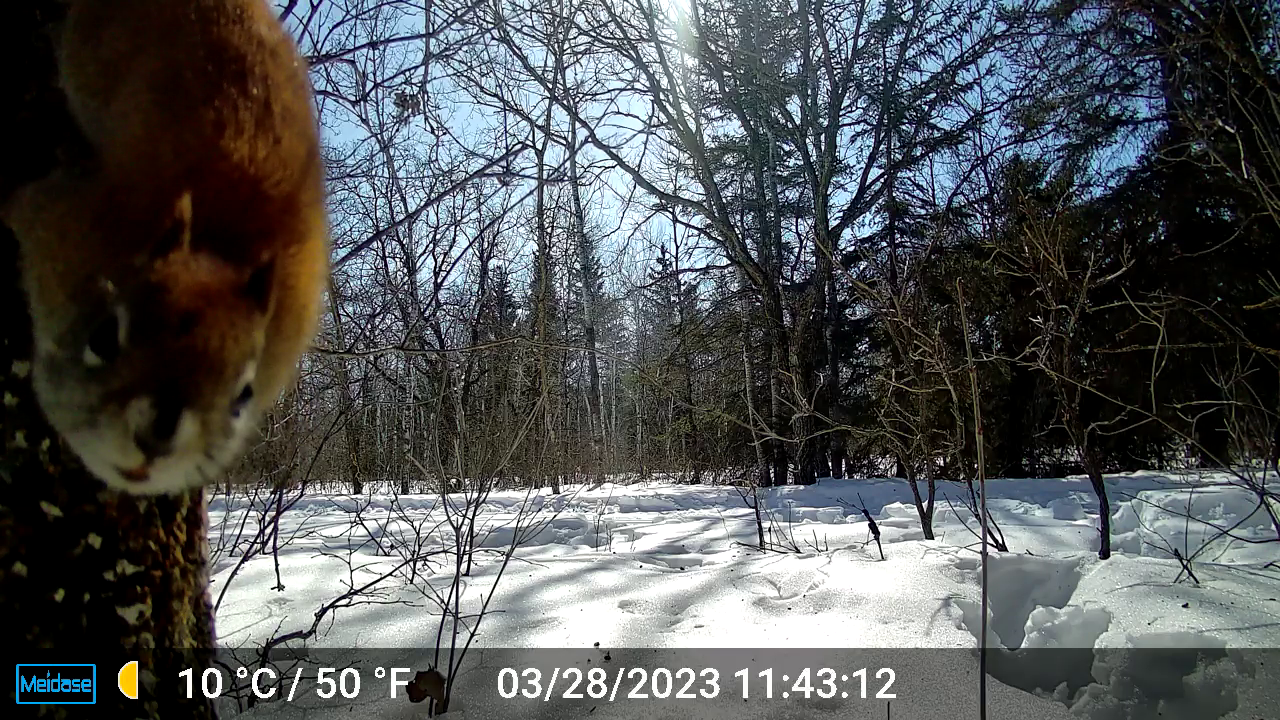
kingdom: Animalia
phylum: Chordata
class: Mammalia
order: Rodentia
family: Sciuridae
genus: Tamiasciurus
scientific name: Tamiasciurus hudsonicus
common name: Red squirrel
